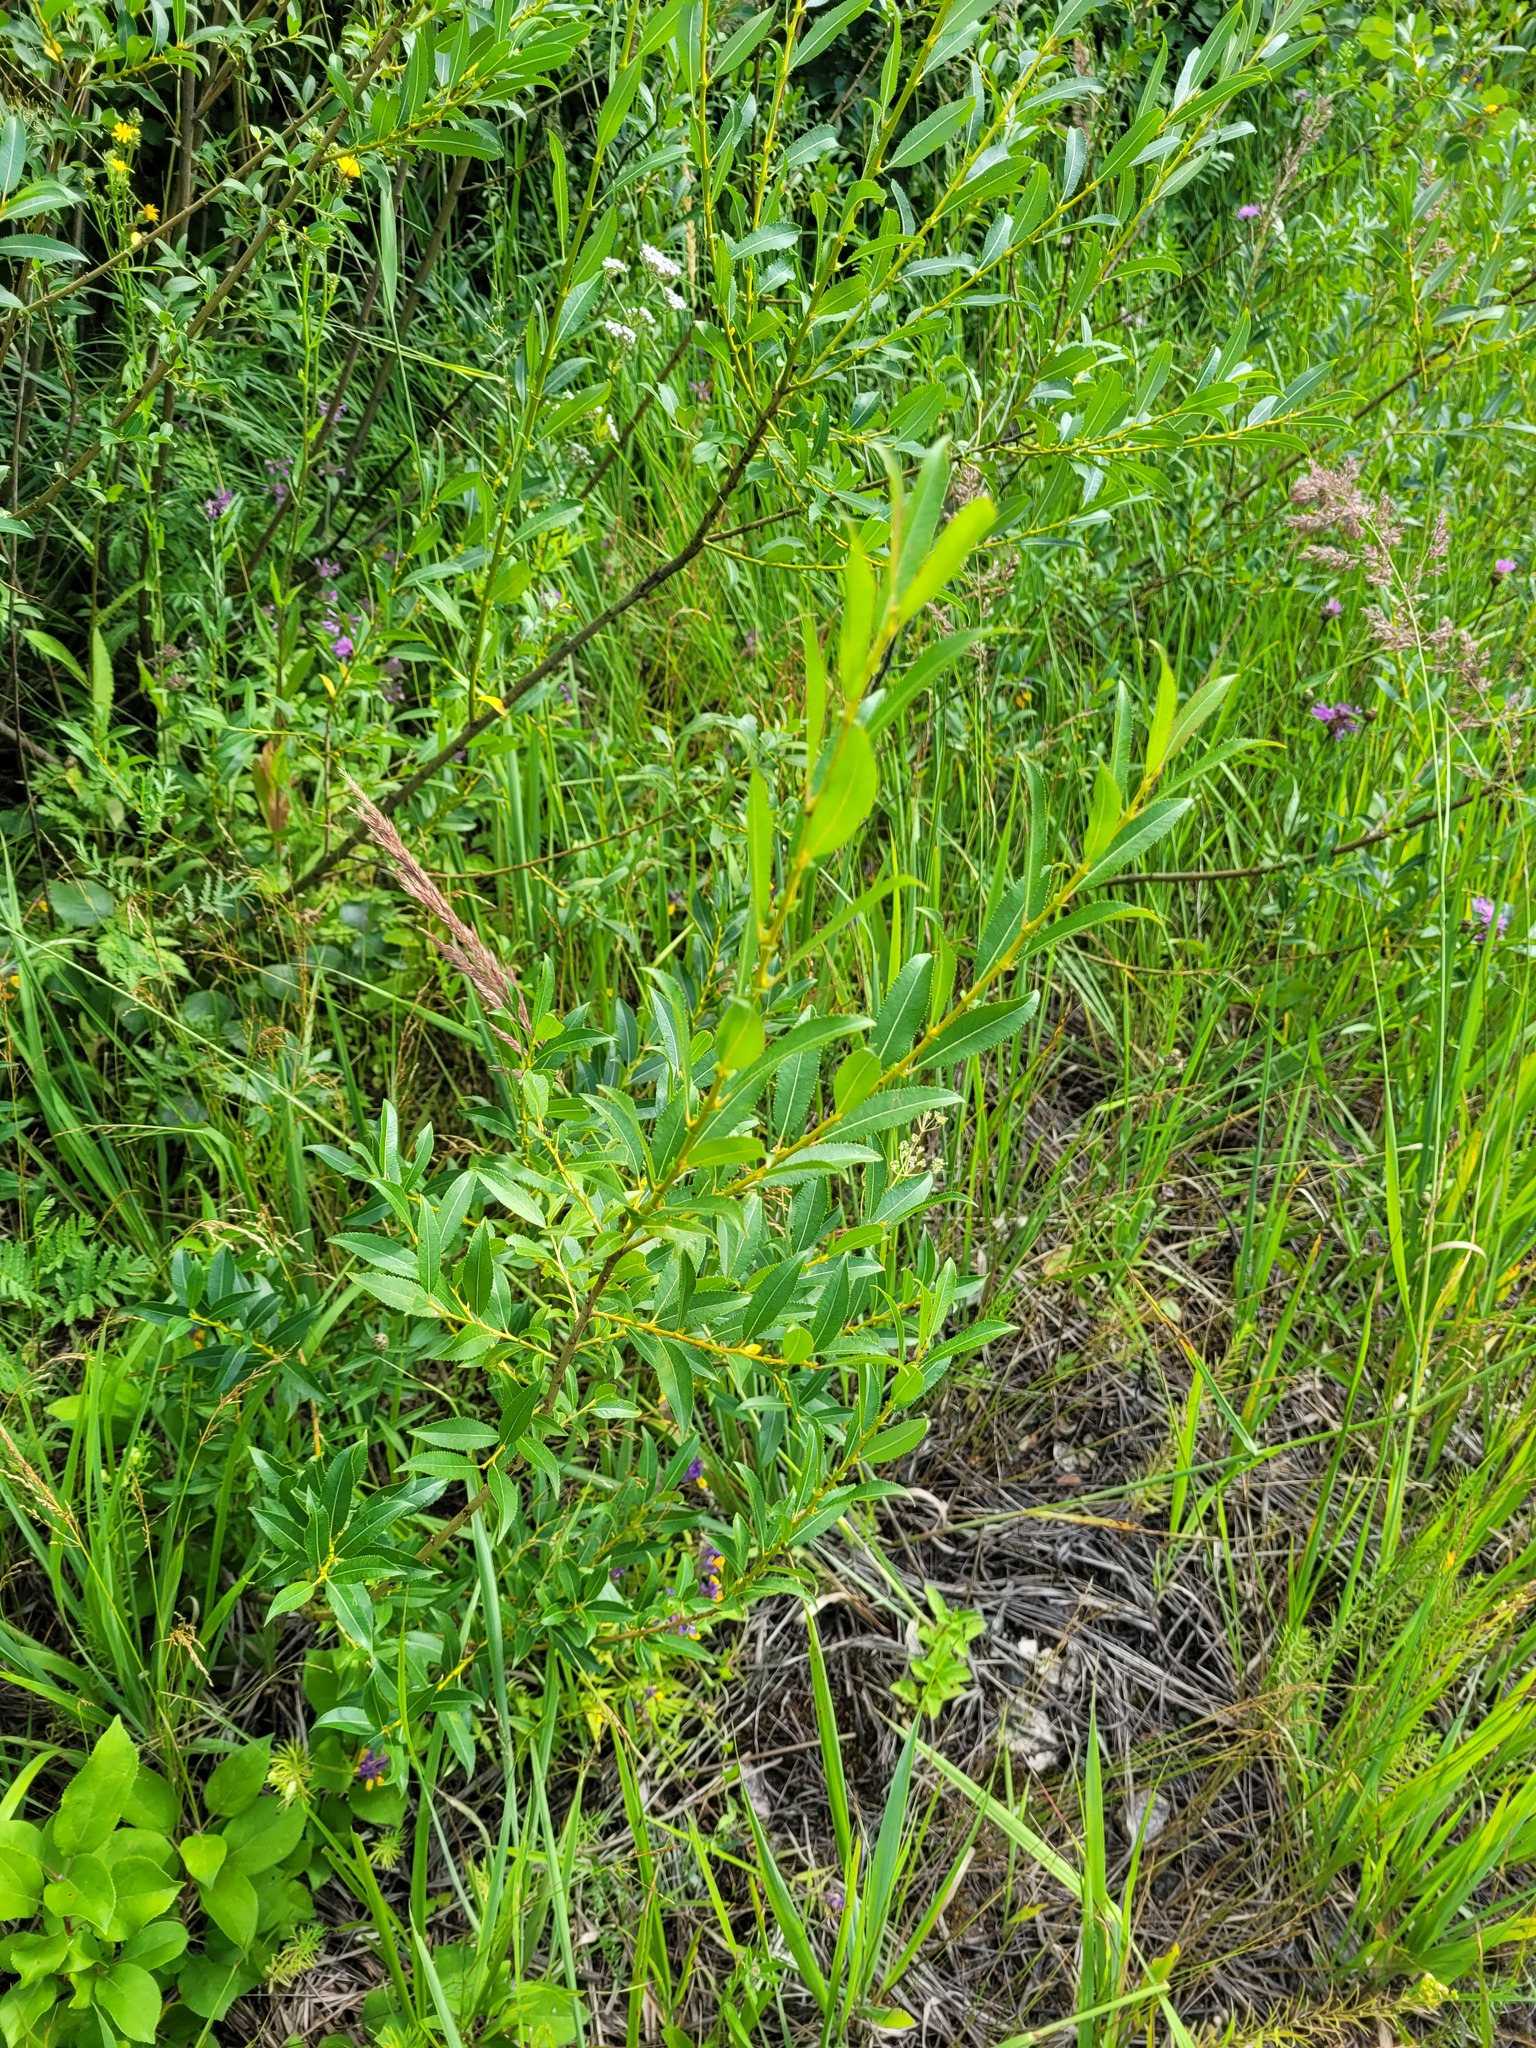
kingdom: Plantae
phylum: Tracheophyta
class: Magnoliopsida
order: Malpighiales
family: Salicaceae
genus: Salix
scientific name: Salix triandra
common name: Almond willow
